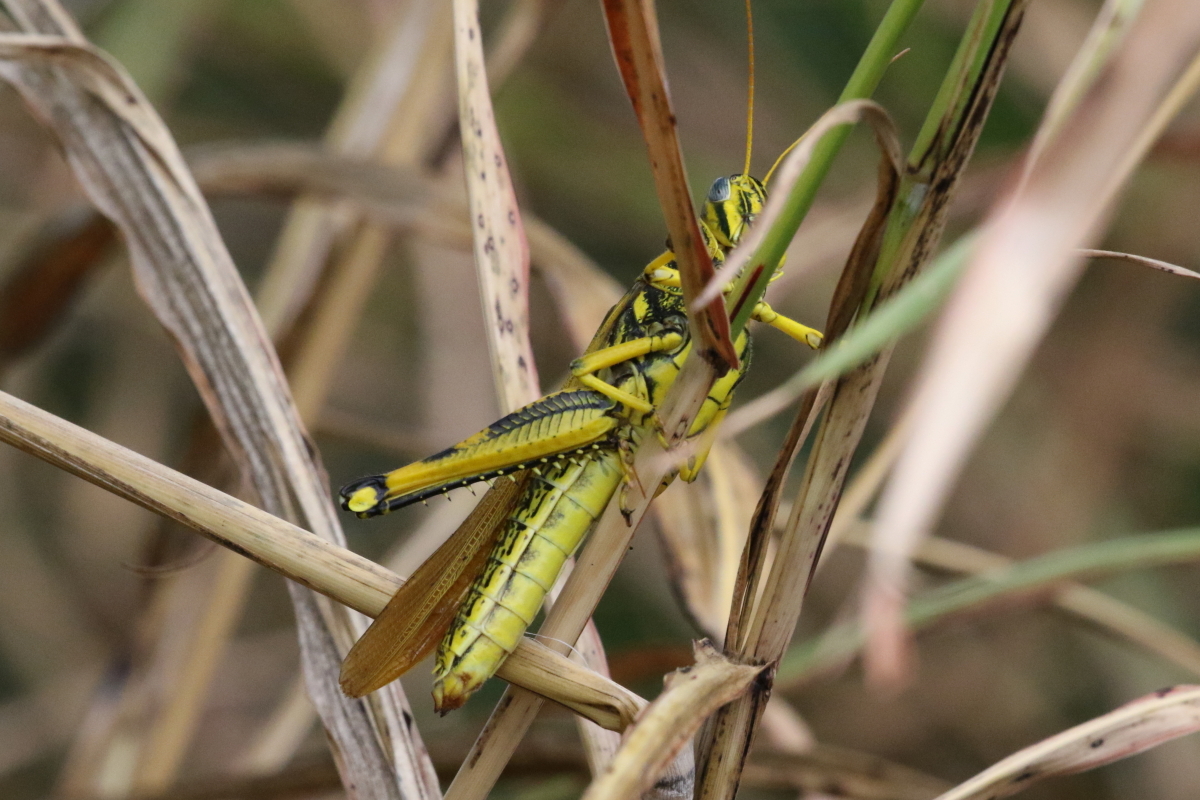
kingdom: Animalia
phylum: Arthropoda
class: Insecta
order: Orthoptera
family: Acrididae
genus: Schistocerca
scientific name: Schistocerca lineata
